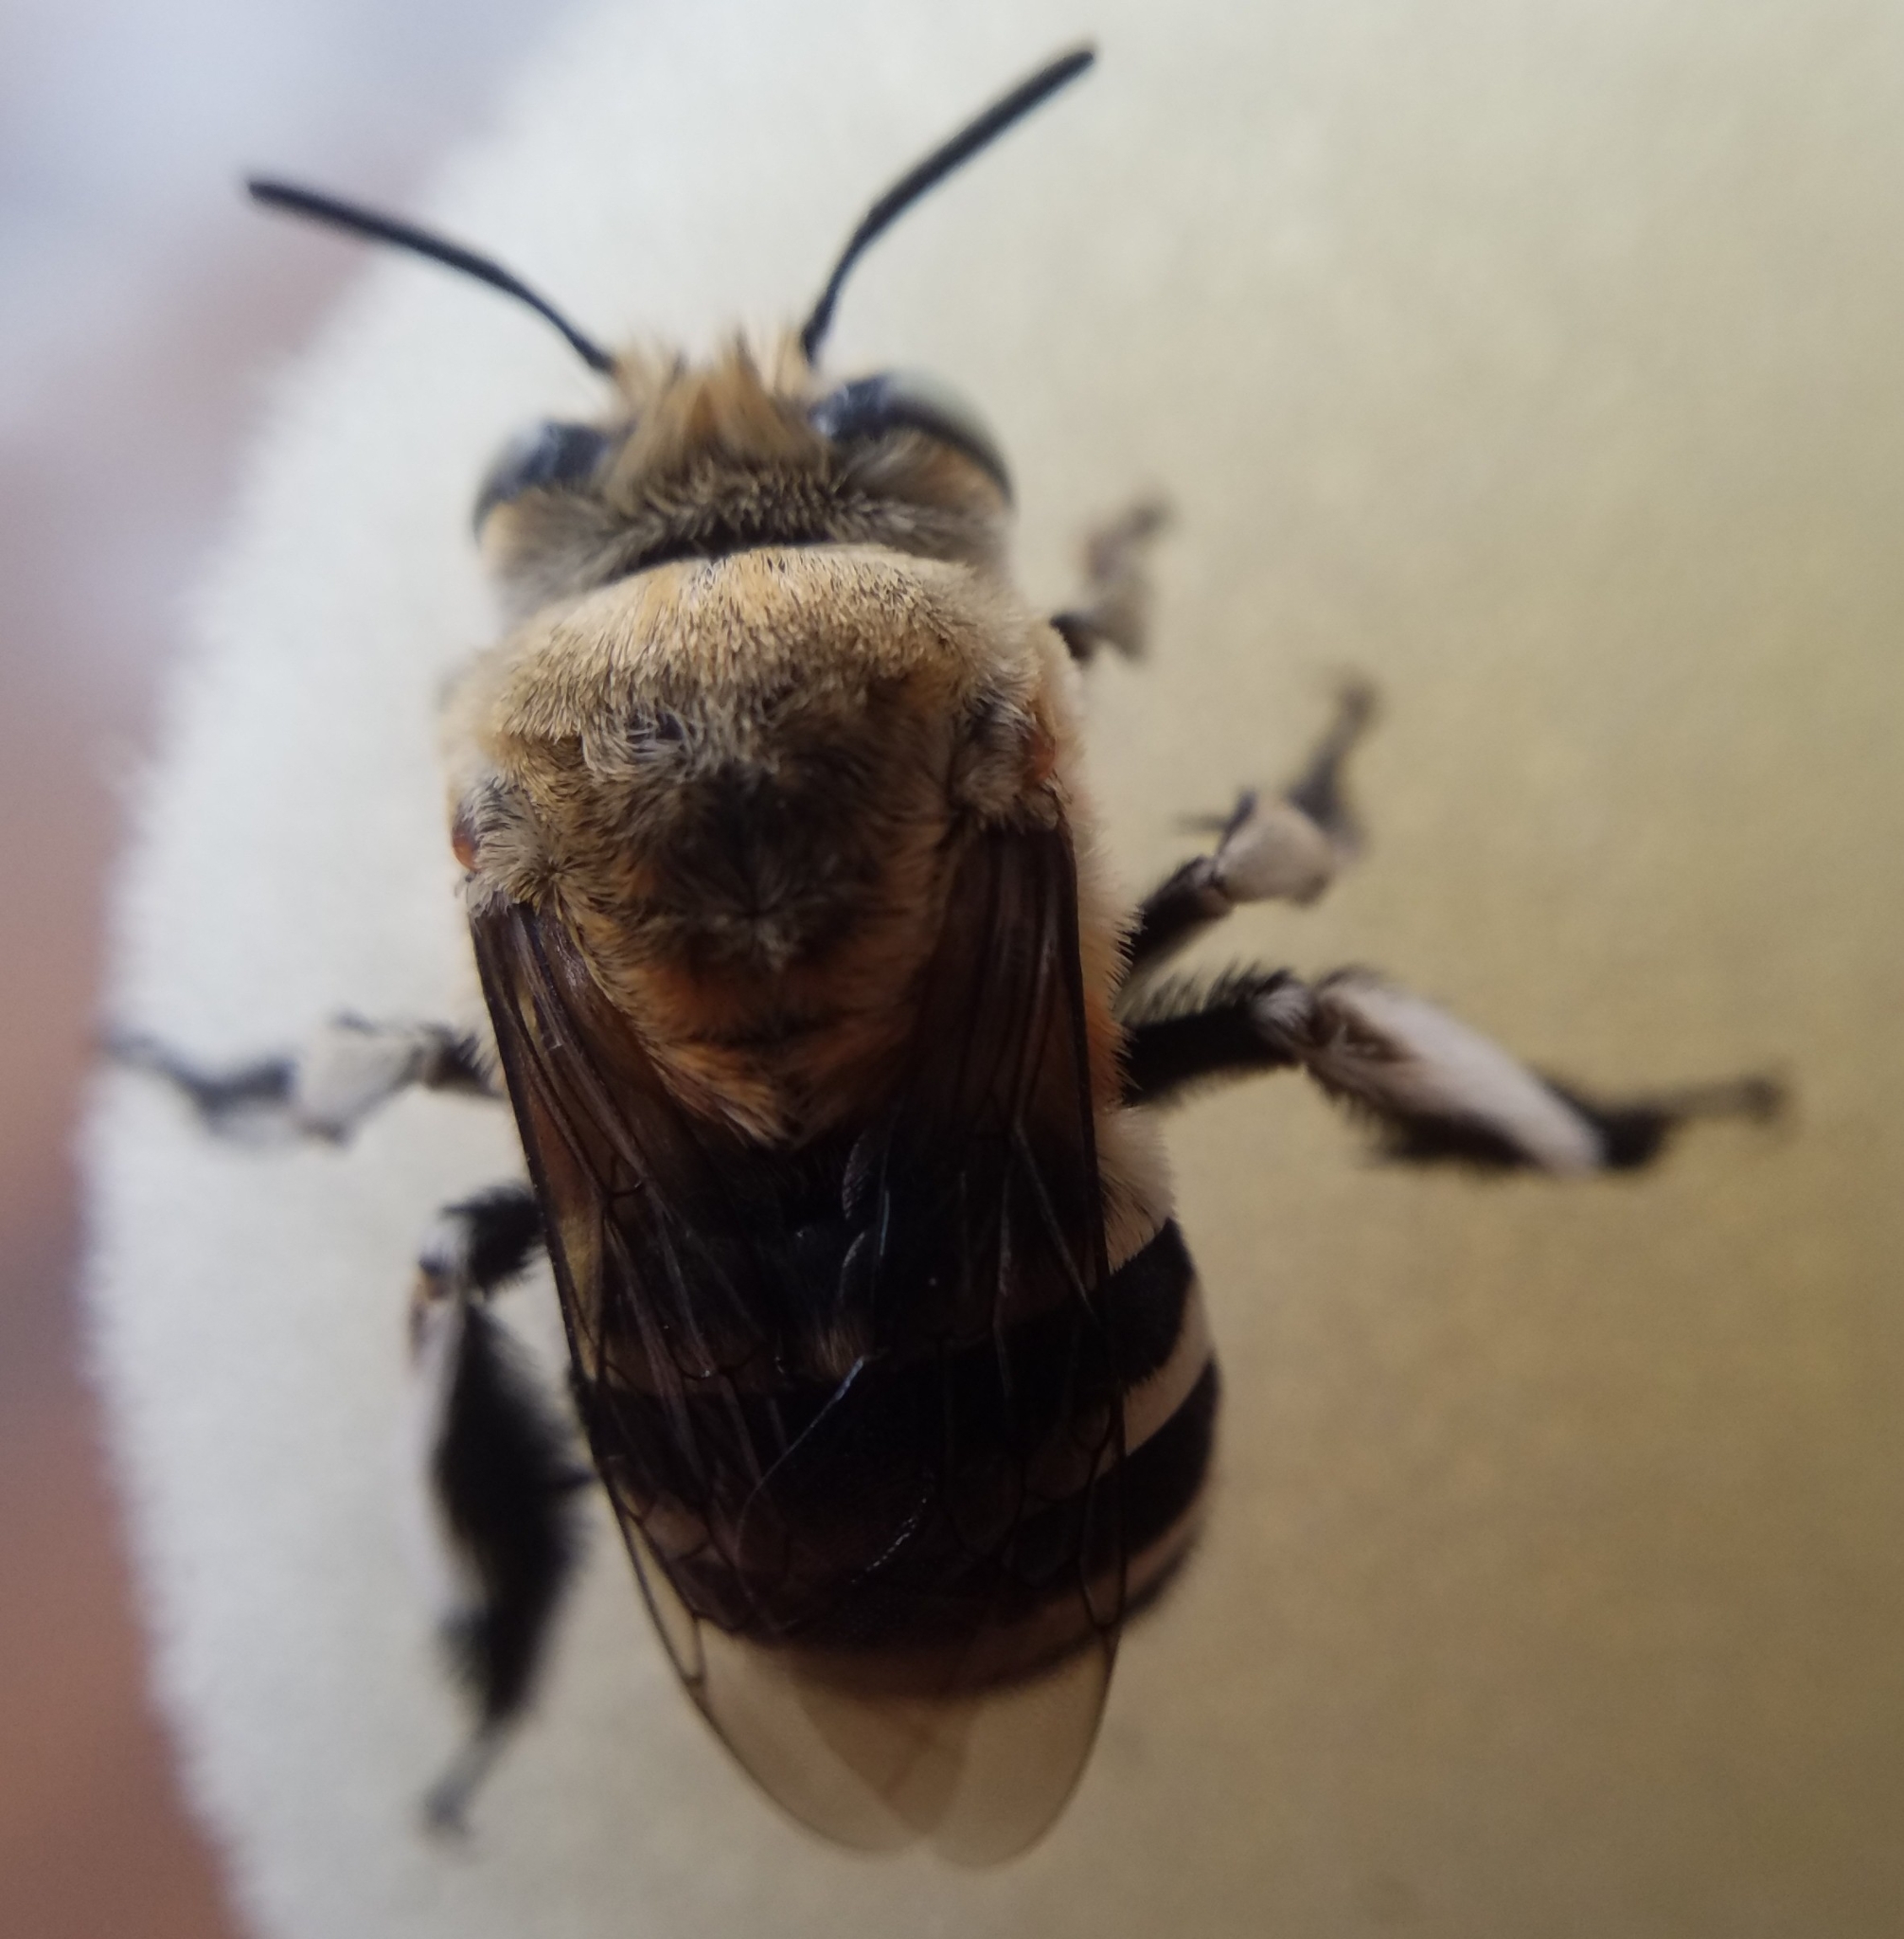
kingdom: Animalia
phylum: Arthropoda
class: Insecta
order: Hymenoptera
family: Apidae
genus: Amegilla
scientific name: Amegilla quadrifasciata
